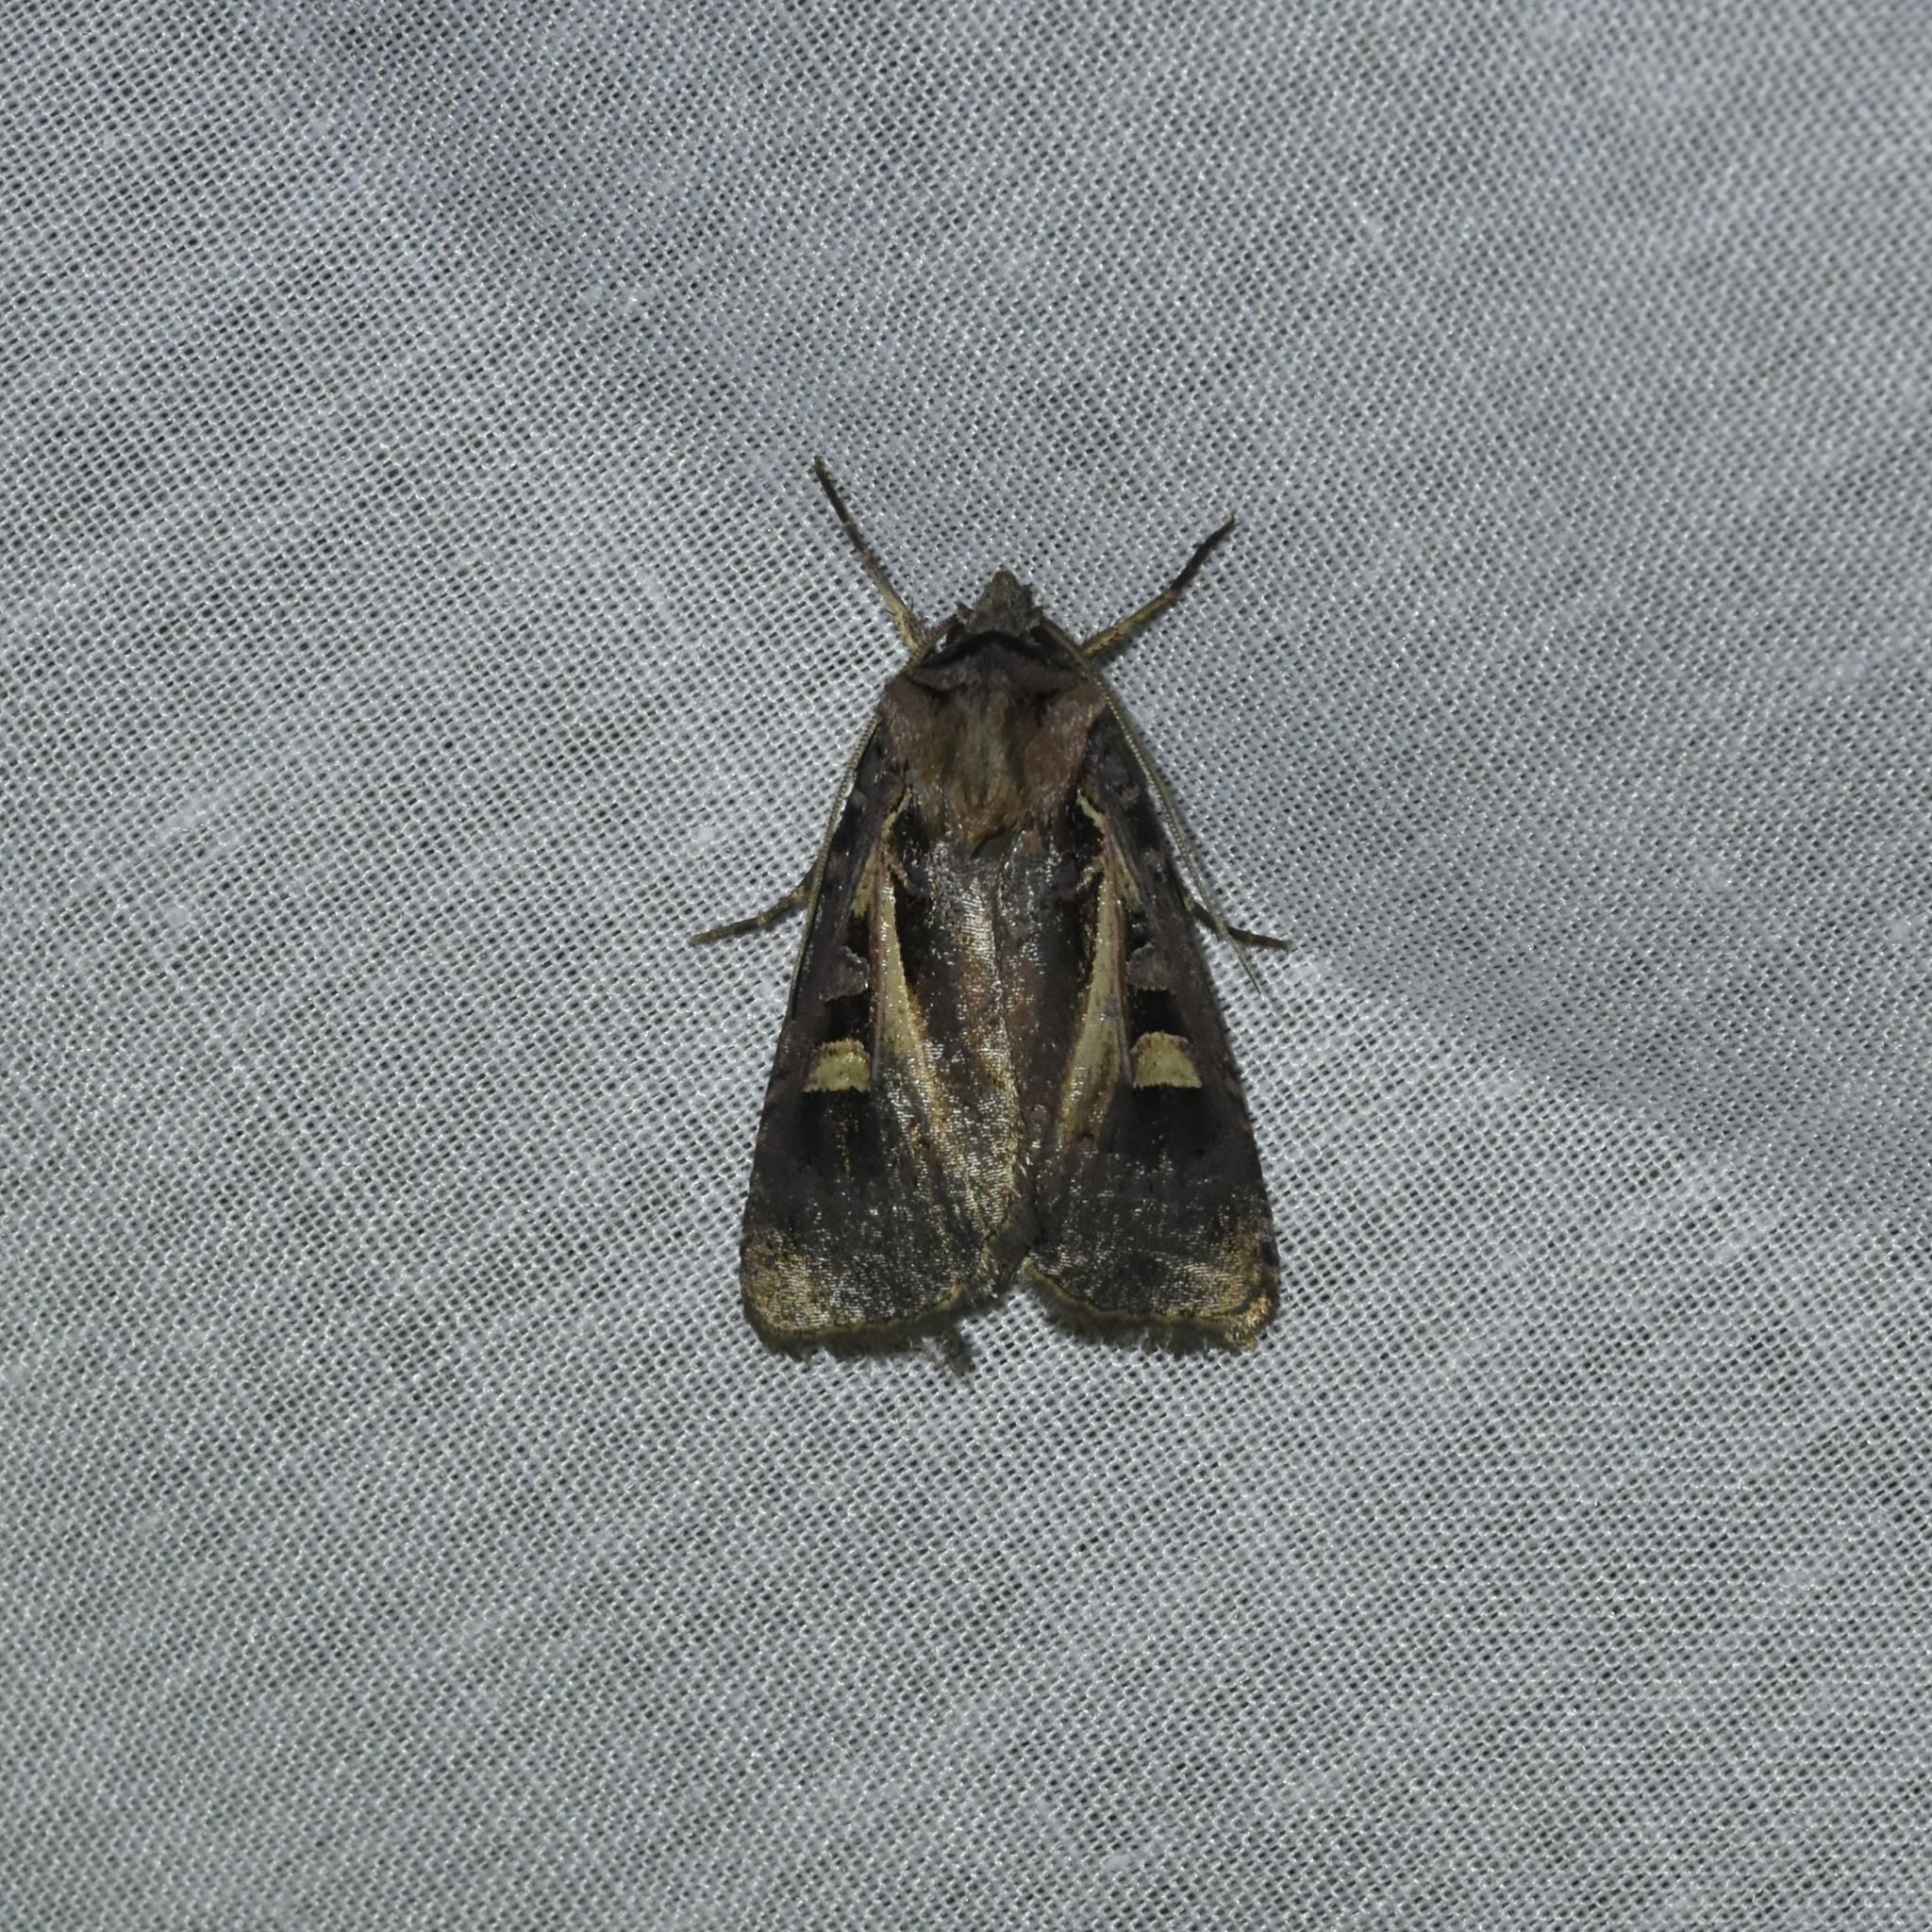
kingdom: Animalia
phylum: Arthropoda
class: Insecta
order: Lepidoptera
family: Noctuidae
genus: Feltia
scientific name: Feltia herilis
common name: Master's dart
